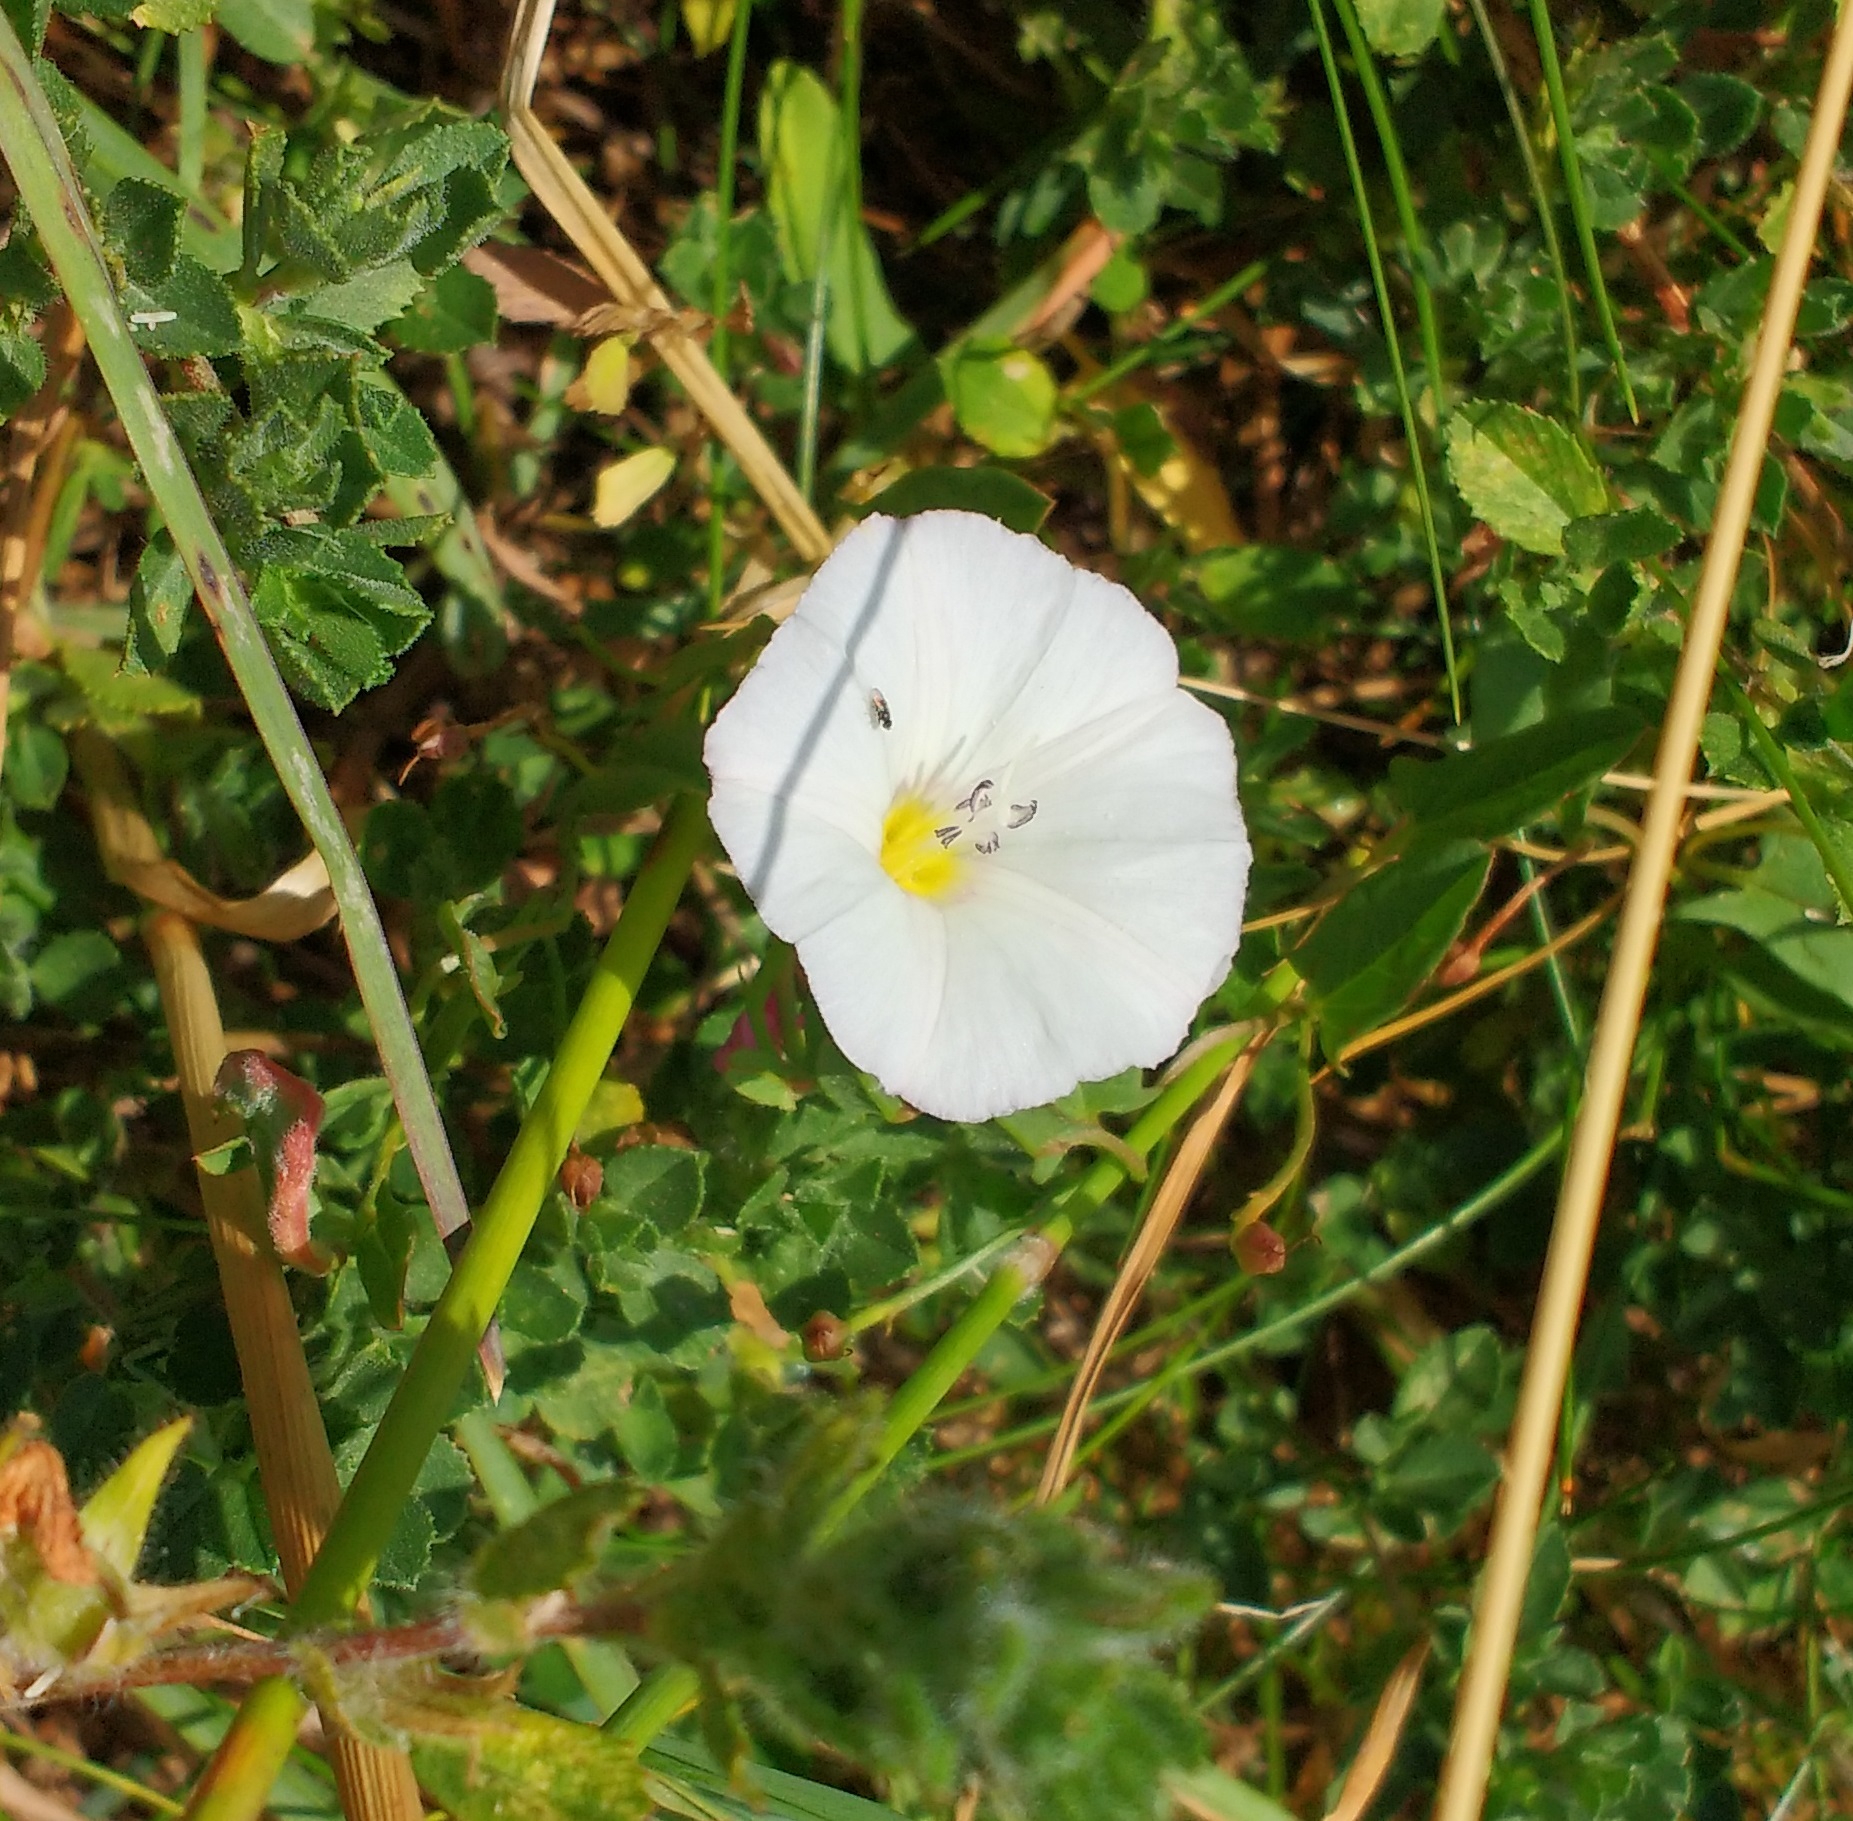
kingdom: Plantae
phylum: Tracheophyta
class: Magnoliopsida
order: Solanales
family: Convolvulaceae
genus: Convolvulus
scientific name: Convolvulus arvensis
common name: Field bindweed
